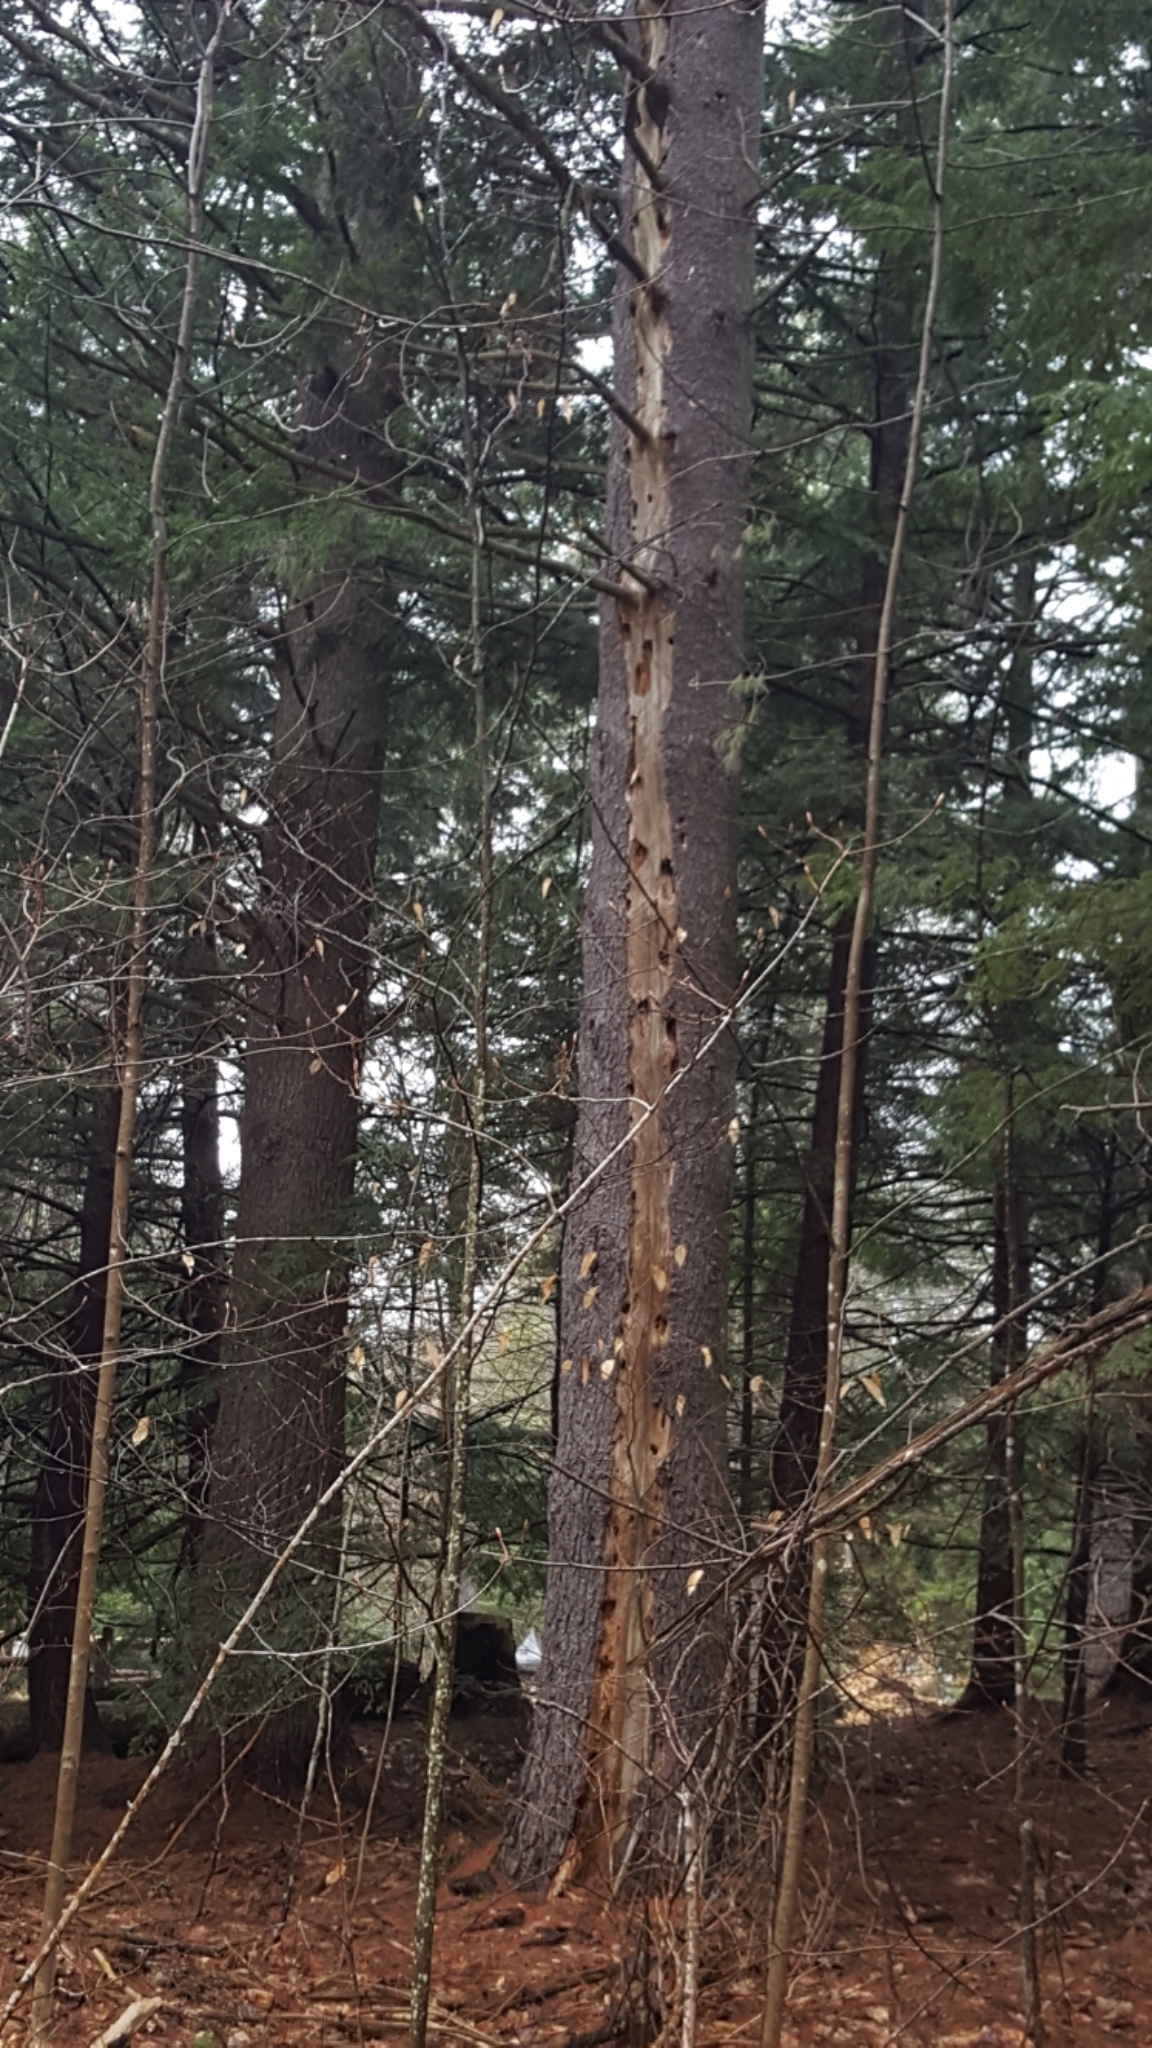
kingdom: Plantae
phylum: Tracheophyta
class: Pinopsida
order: Pinales
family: Pinaceae
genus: Pinus
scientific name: Pinus strobus
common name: Weymouth pine
